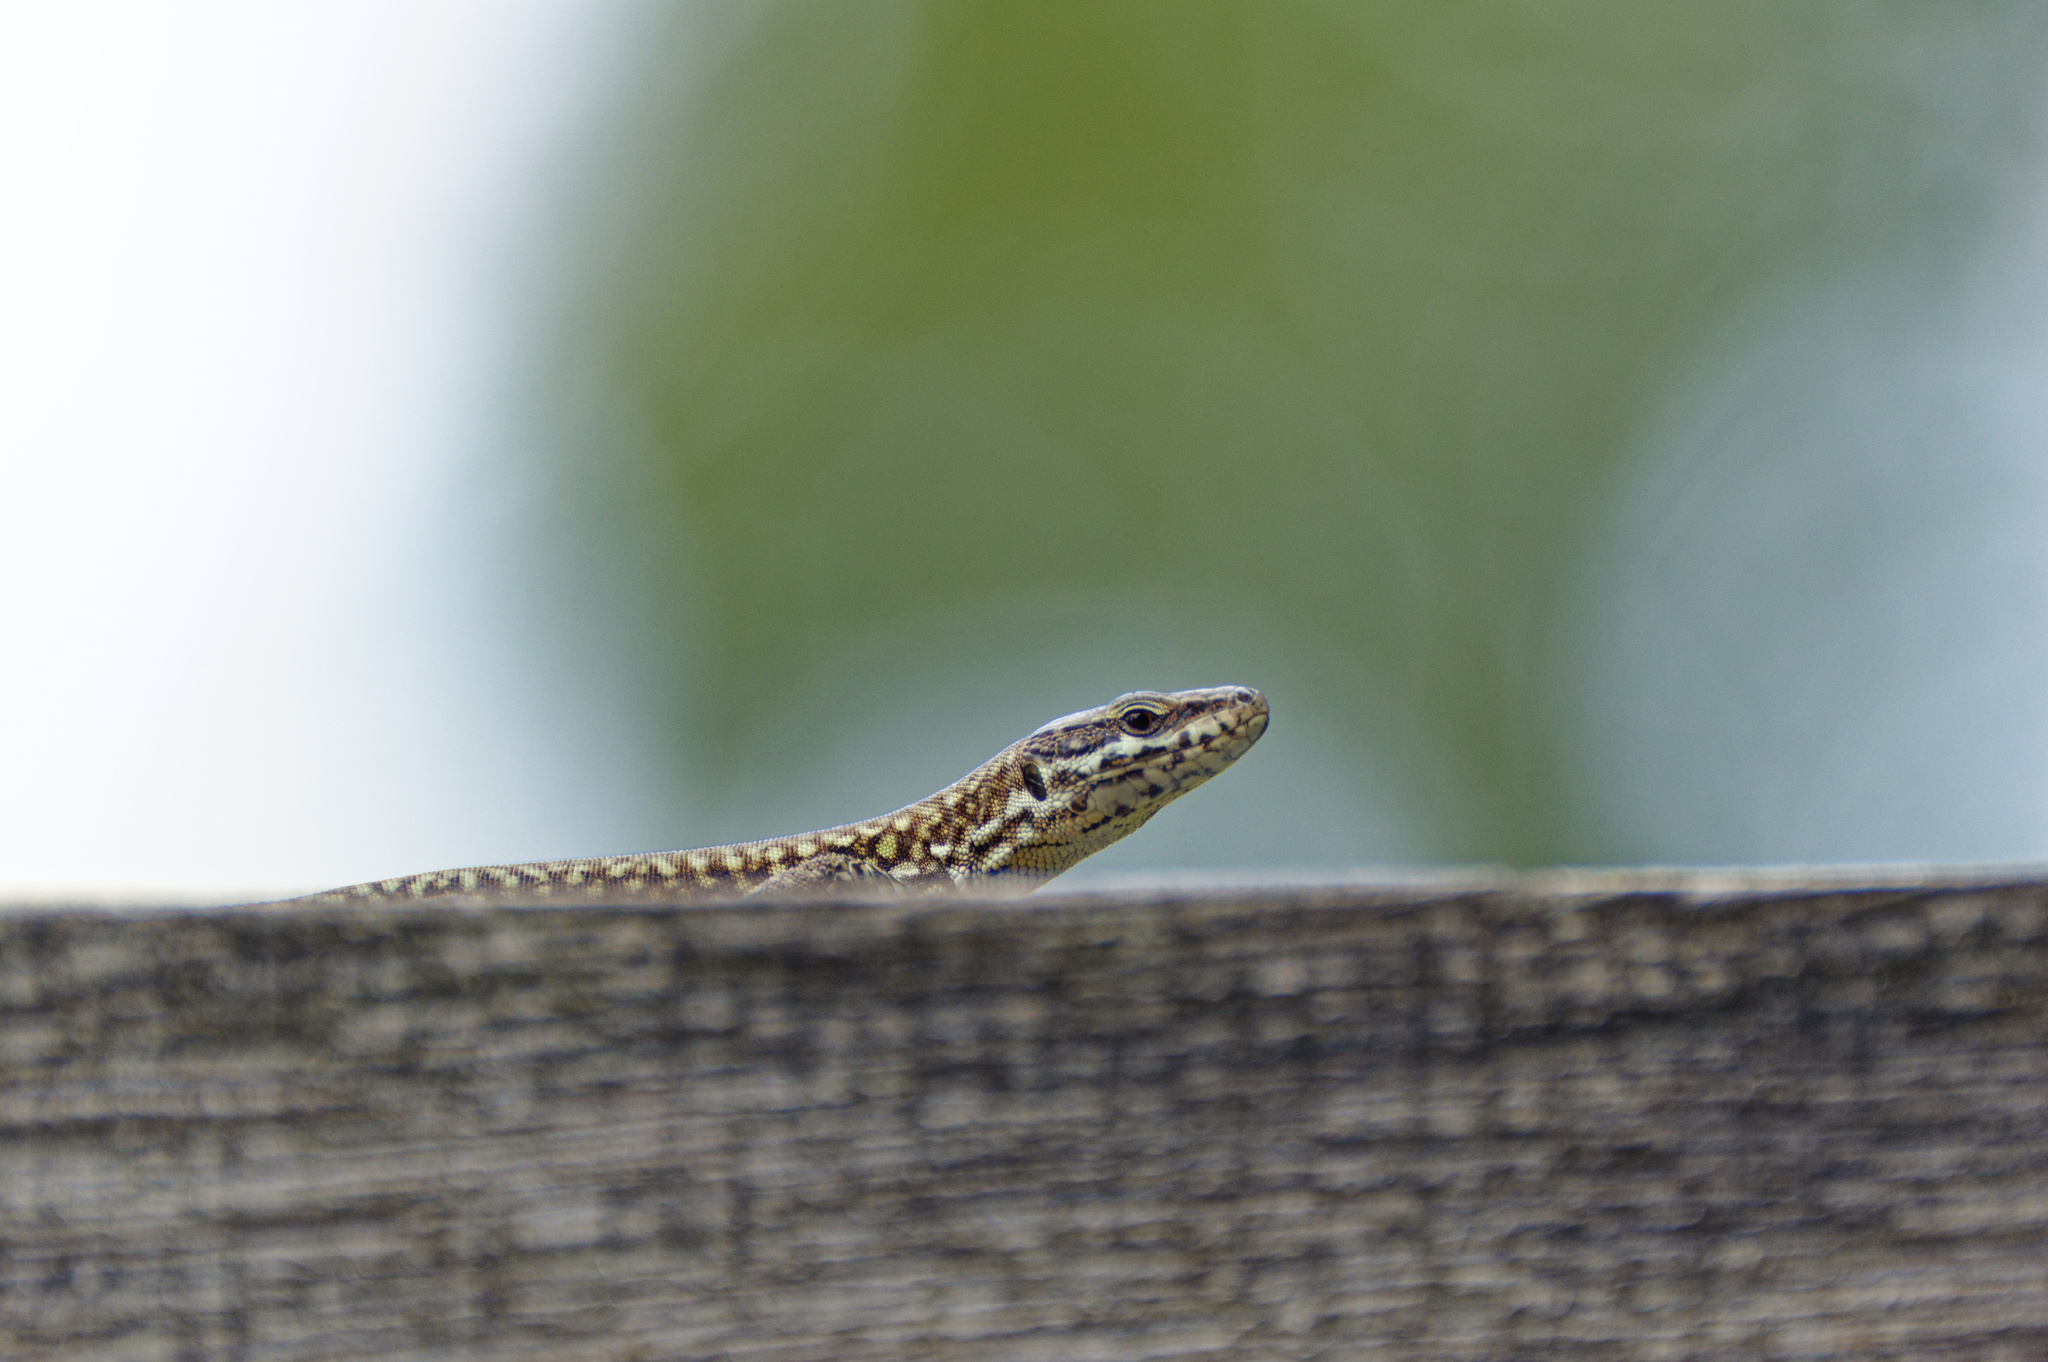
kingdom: Animalia
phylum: Chordata
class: Squamata
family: Lacertidae
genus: Podarcis
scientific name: Podarcis muralis
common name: Common wall lizard
